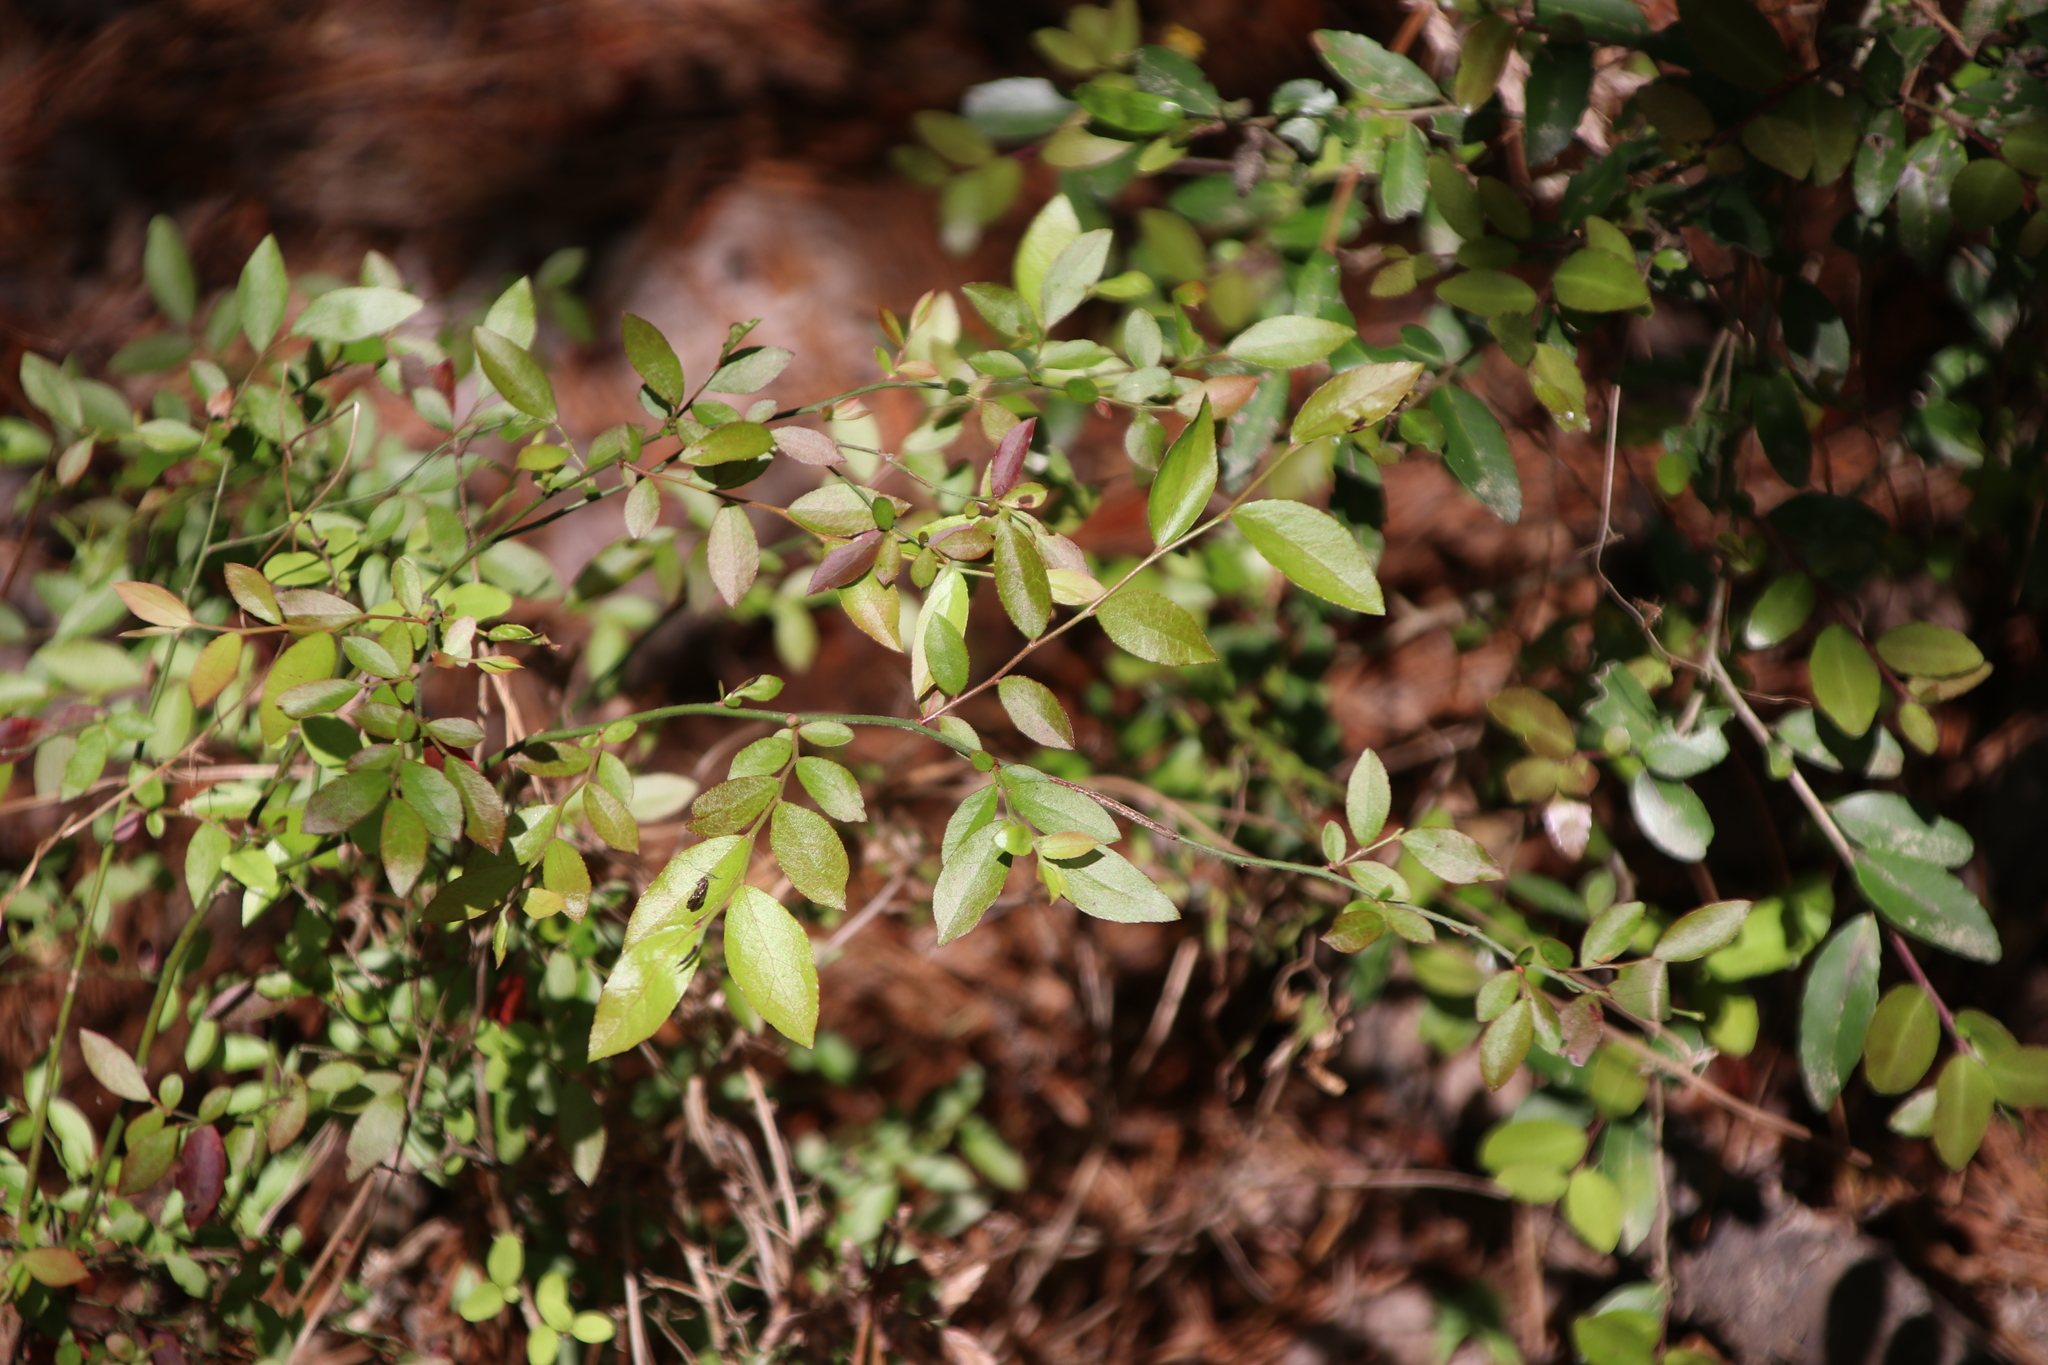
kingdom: Plantae
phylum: Tracheophyta
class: Magnoliopsida
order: Ericales
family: Ericaceae
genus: Vaccinium
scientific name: Vaccinium corymbosum
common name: Blueberry
